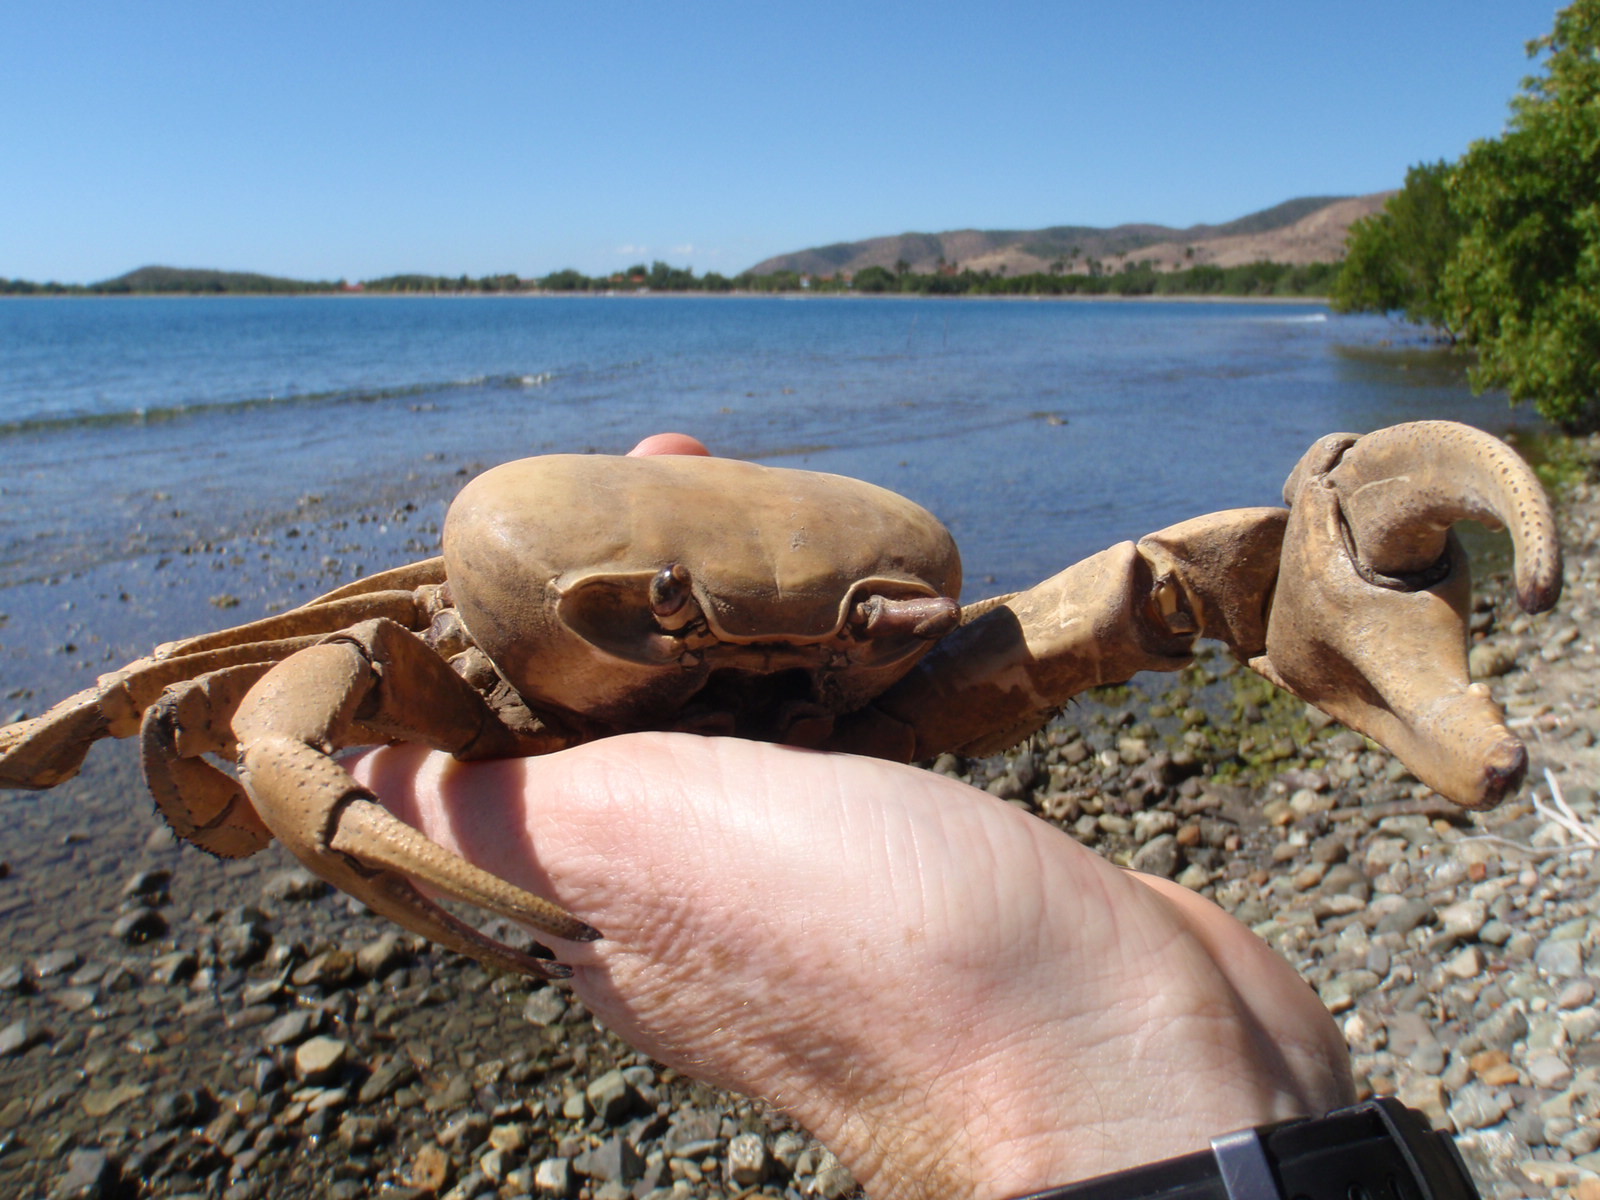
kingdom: Animalia
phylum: Arthropoda
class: Malacostraca
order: Decapoda
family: Gecarcinidae
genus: Cardisoma
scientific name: Cardisoma guanhumi
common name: Great land crab
